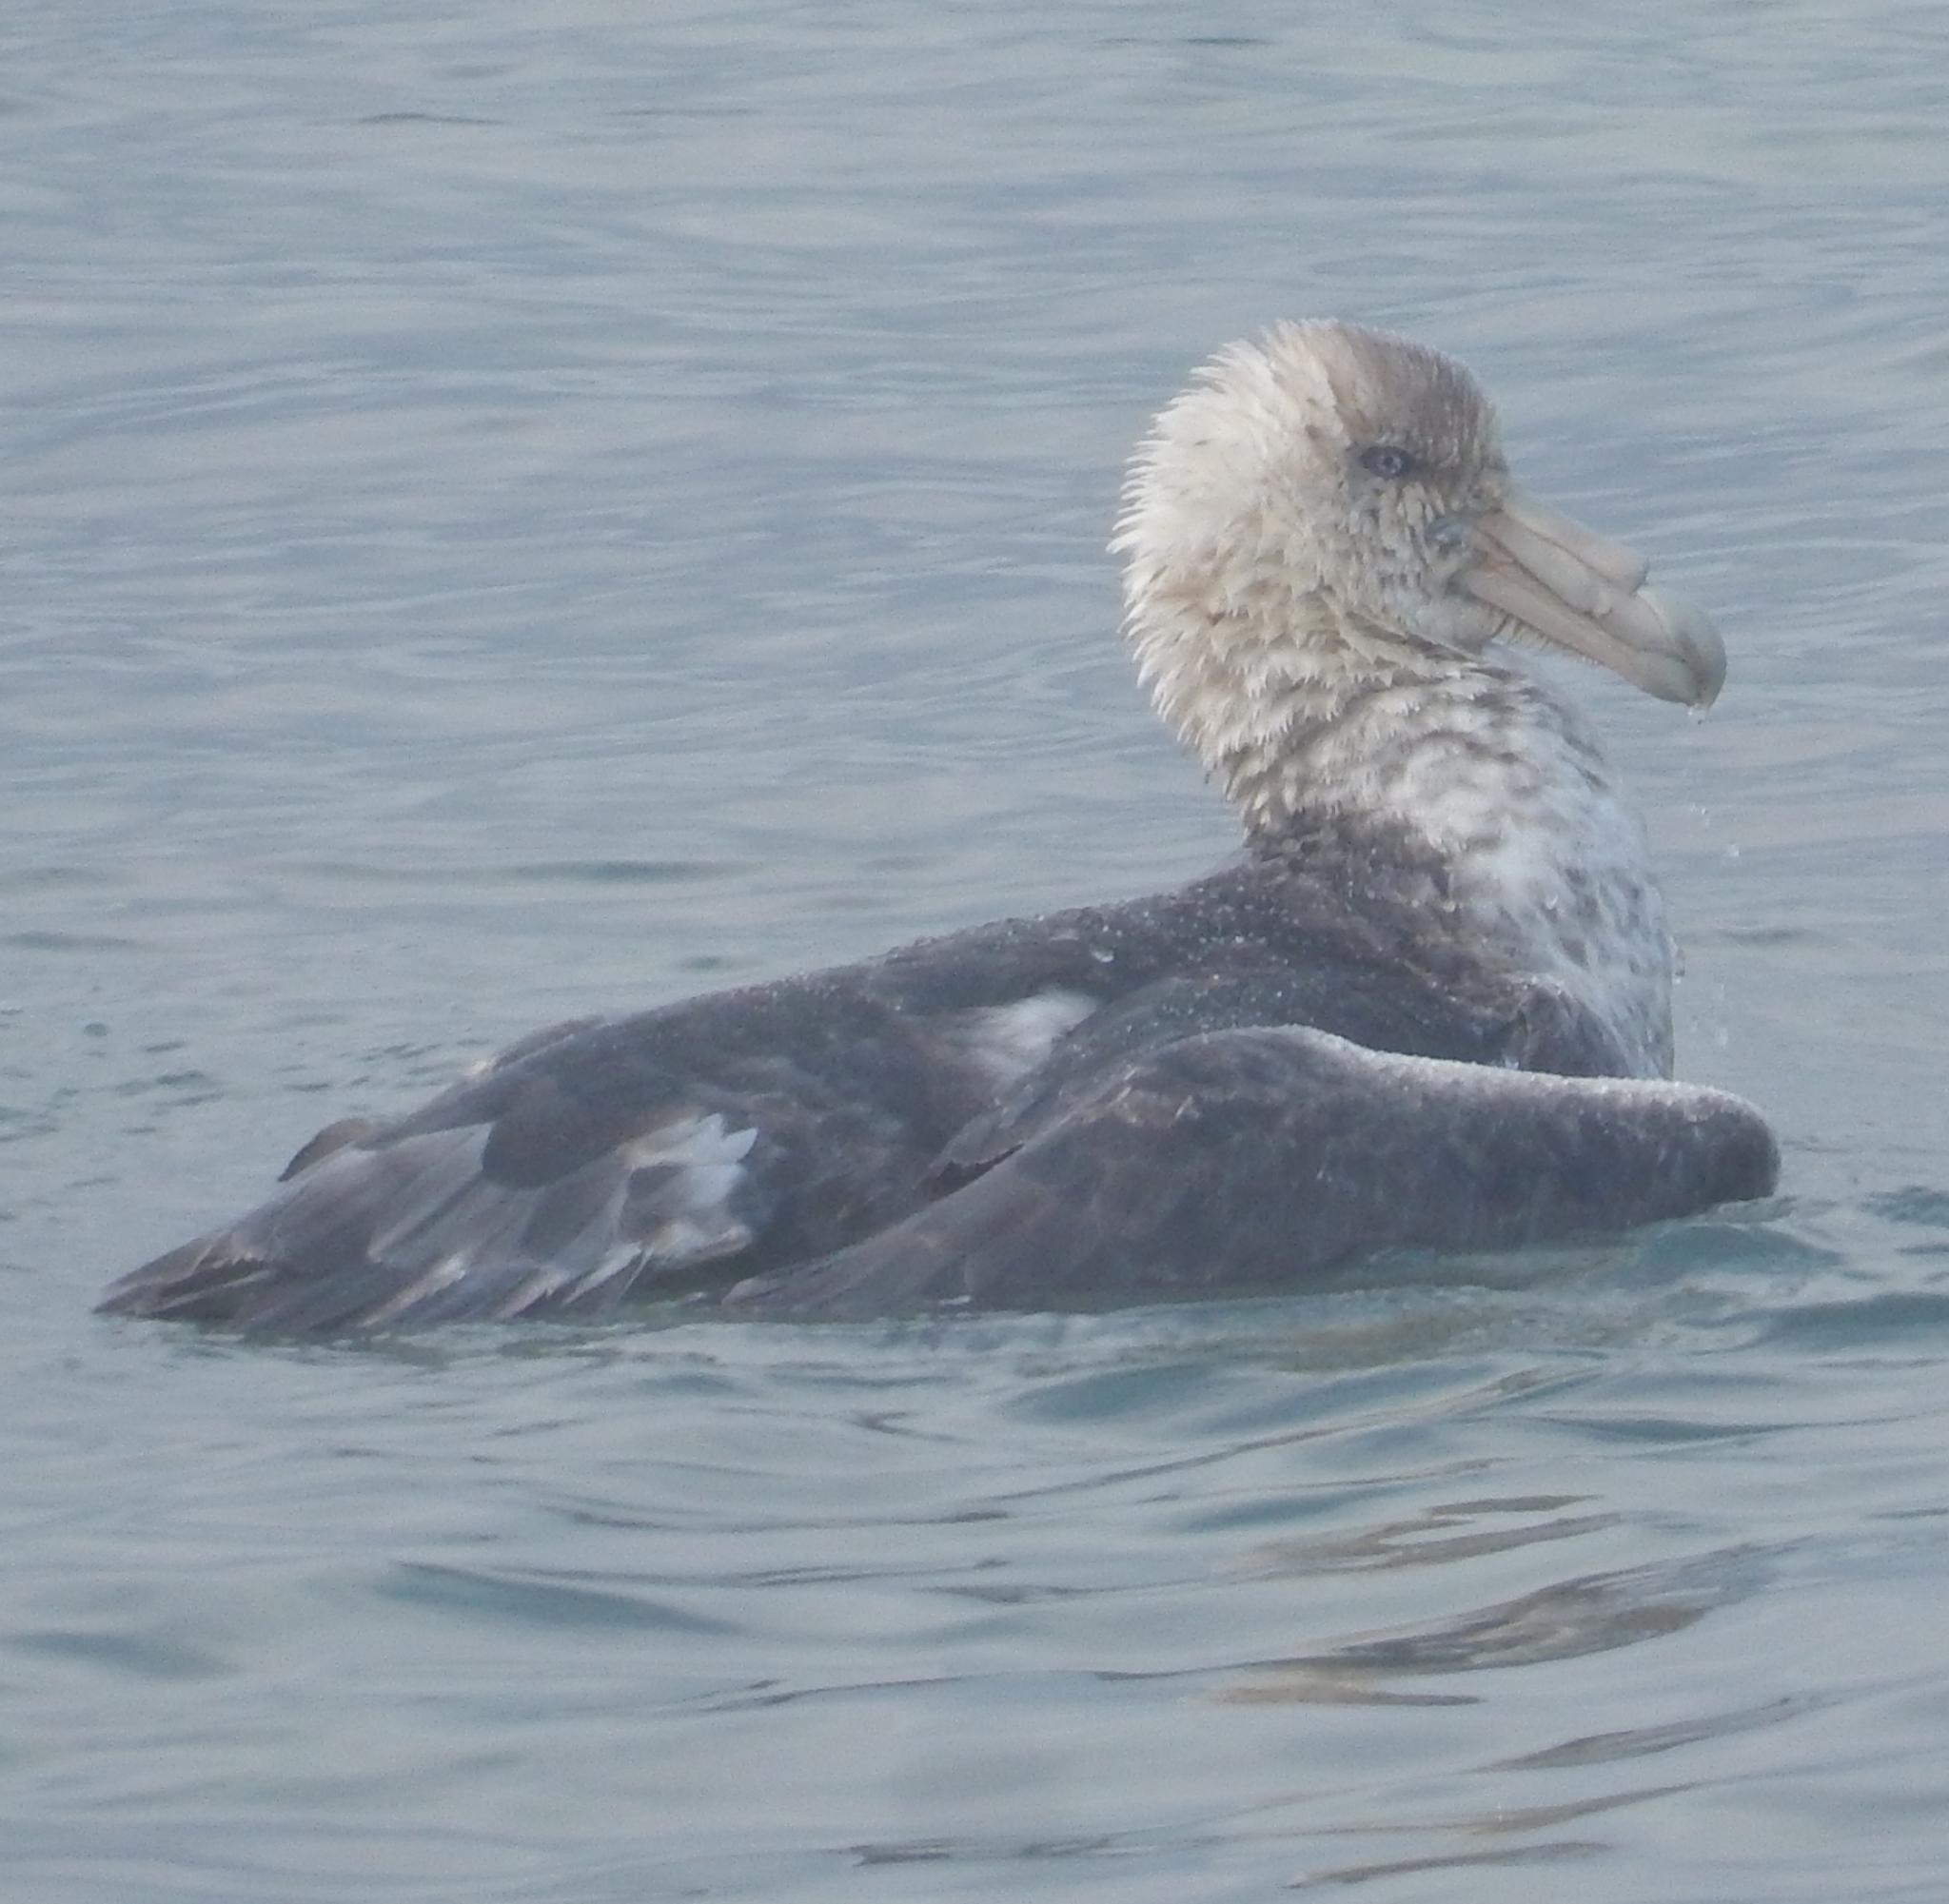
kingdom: Animalia
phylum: Chordata
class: Aves
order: Procellariiformes
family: Procellariidae
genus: Macronectes
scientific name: Macronectes giganteus
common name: Southern giant petrel
